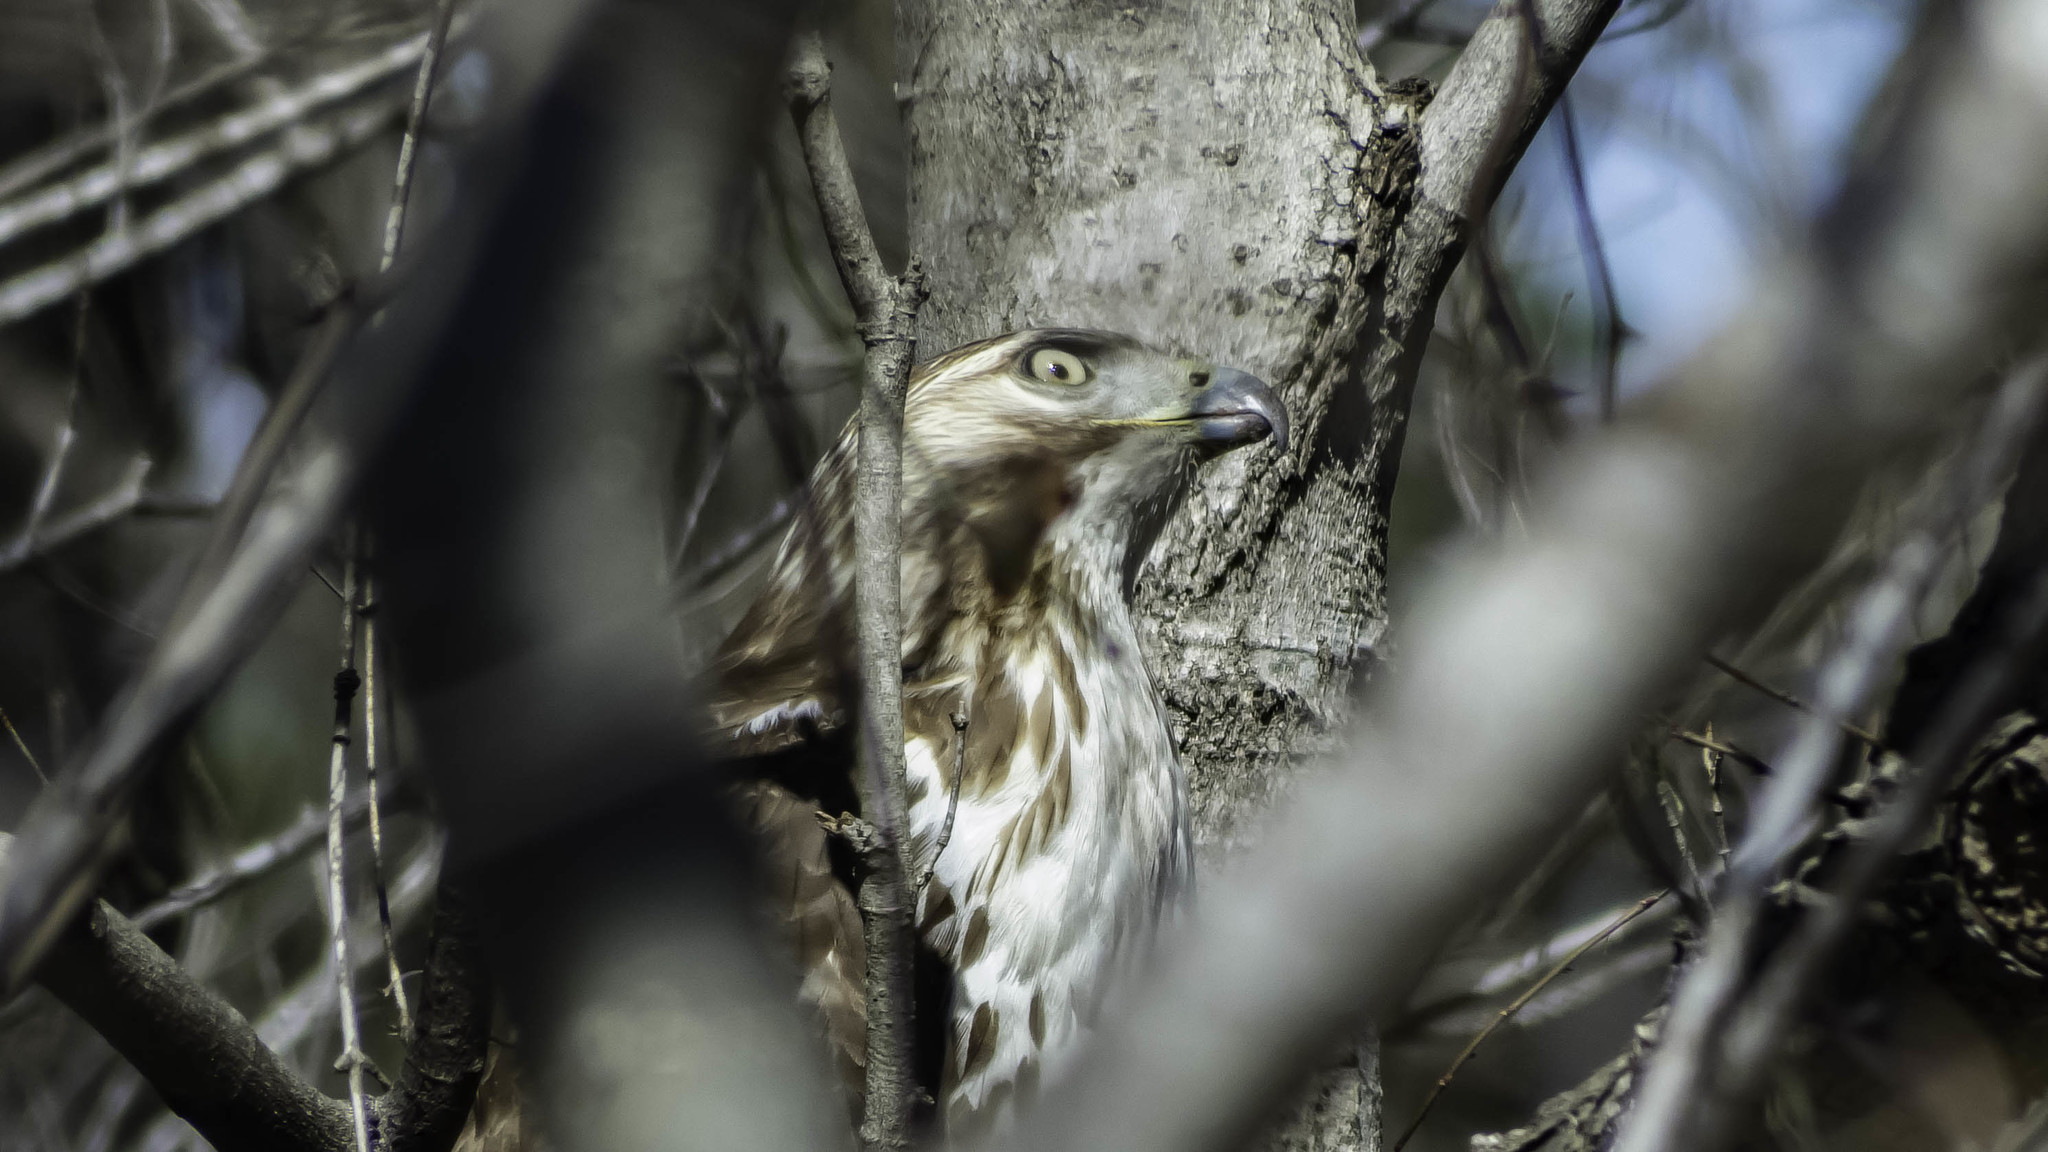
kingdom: Animalia
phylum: Chordata
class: Aves
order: Accipitriformes
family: Accipitridae
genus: Buteo
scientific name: Buteo jamaicensis
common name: Red-tailed hawk
